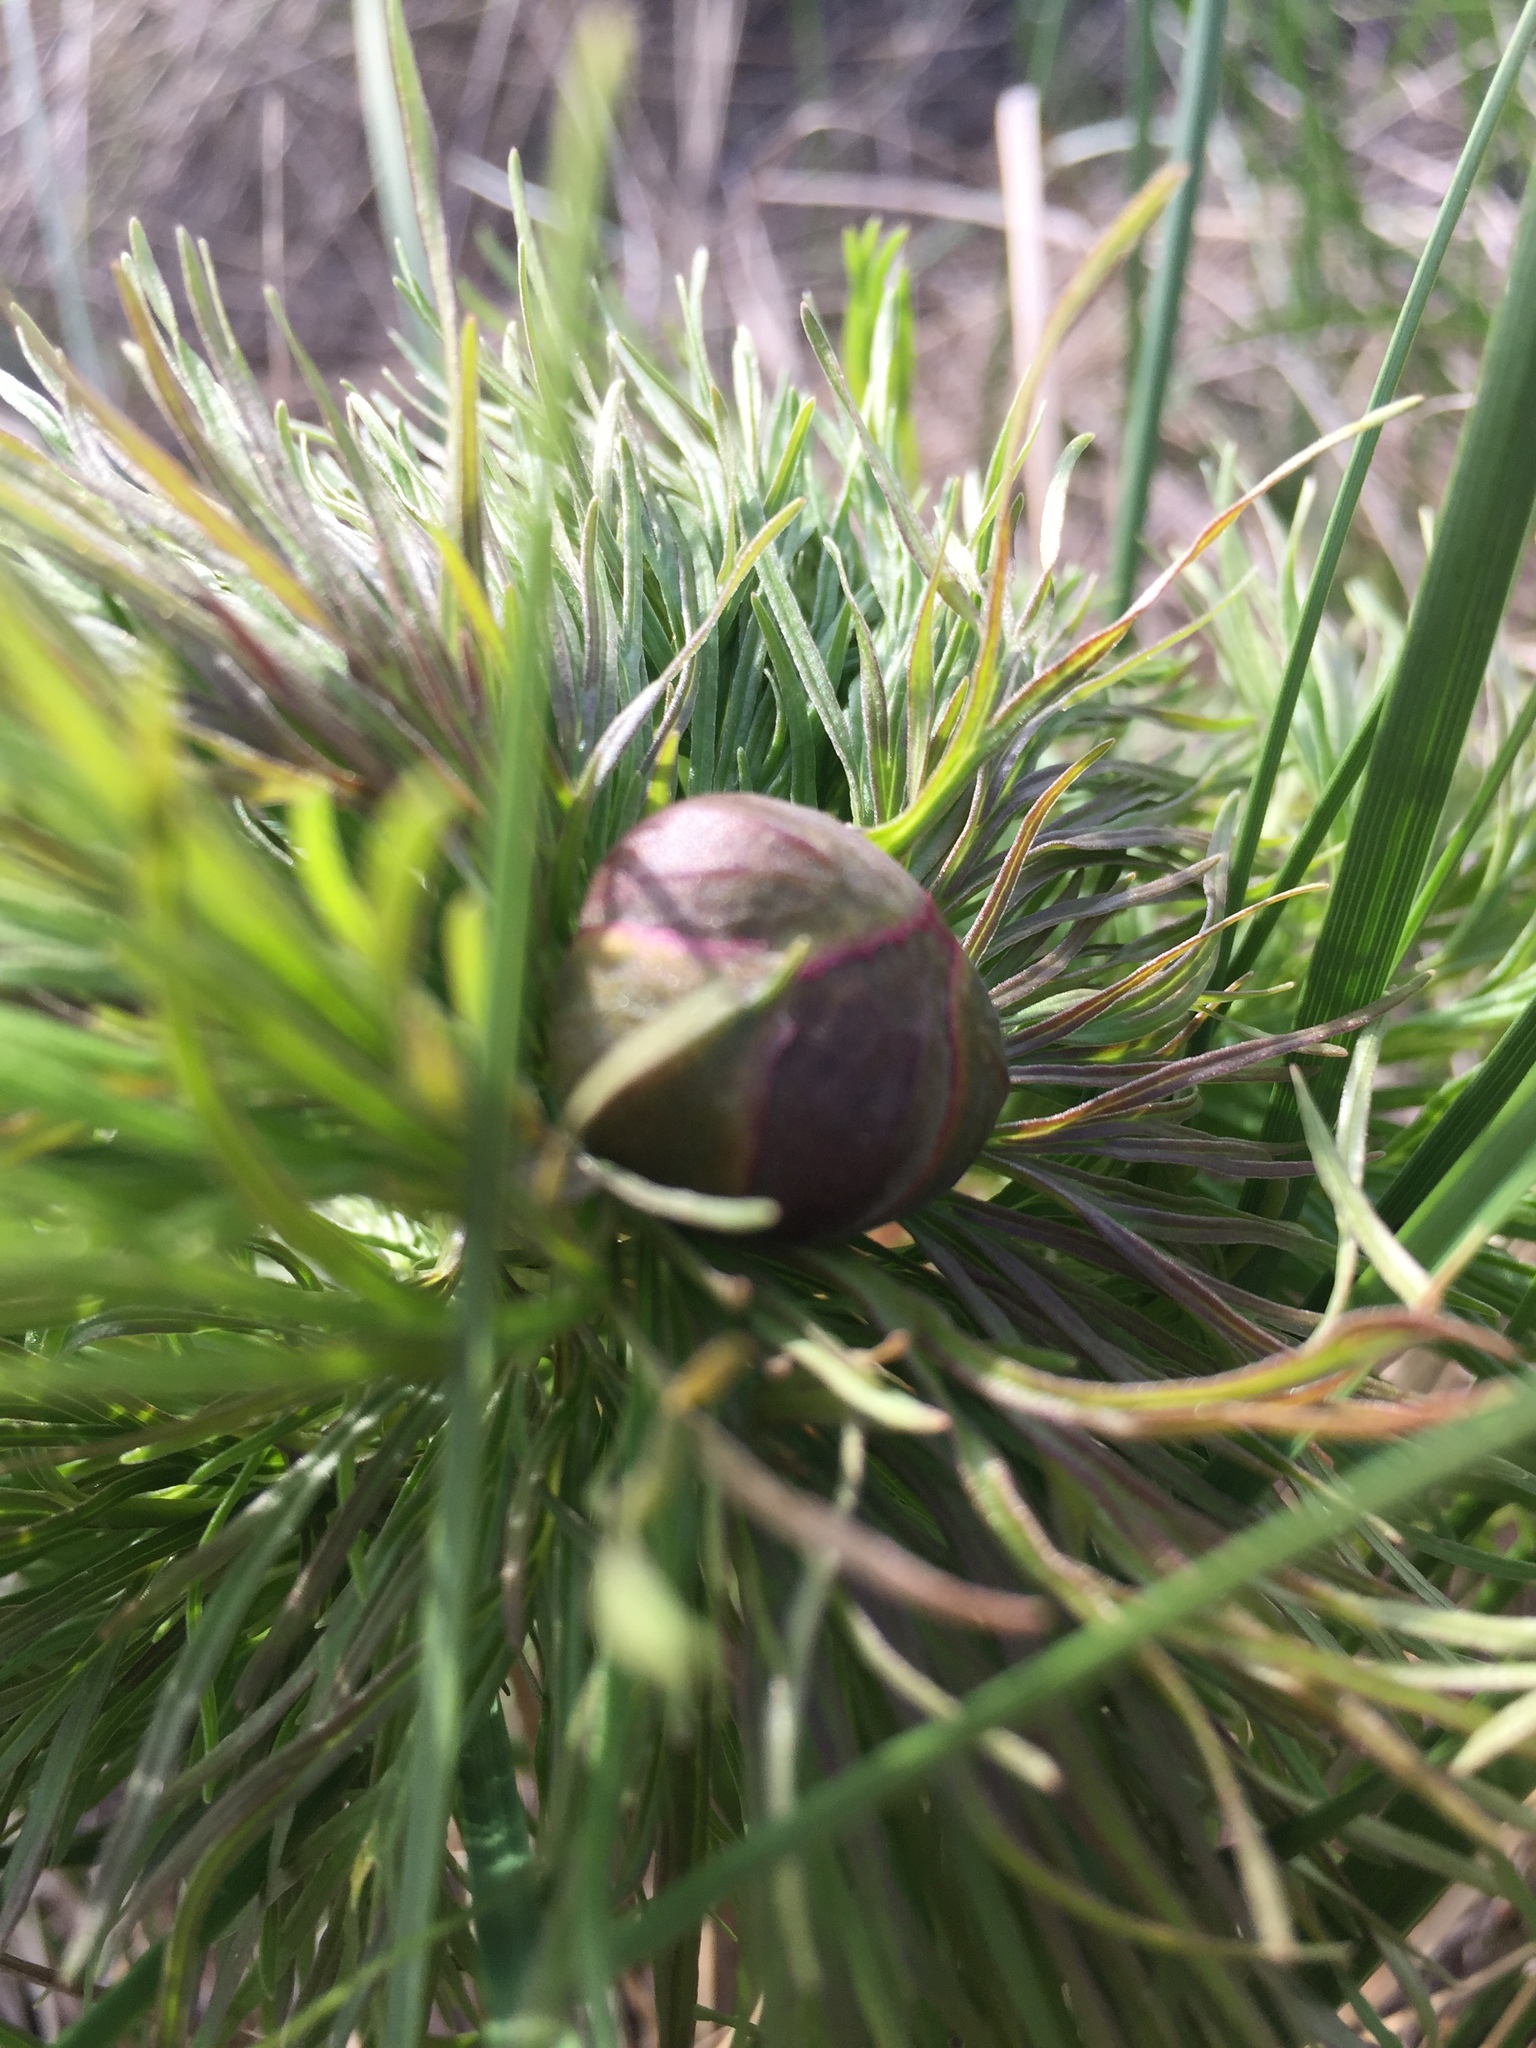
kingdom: Plantae
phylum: Tracheophyta
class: Magnoliopsida
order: Saxifragales
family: Paeoniaceae
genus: Paeonia
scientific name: Paeonia tenuifolia
